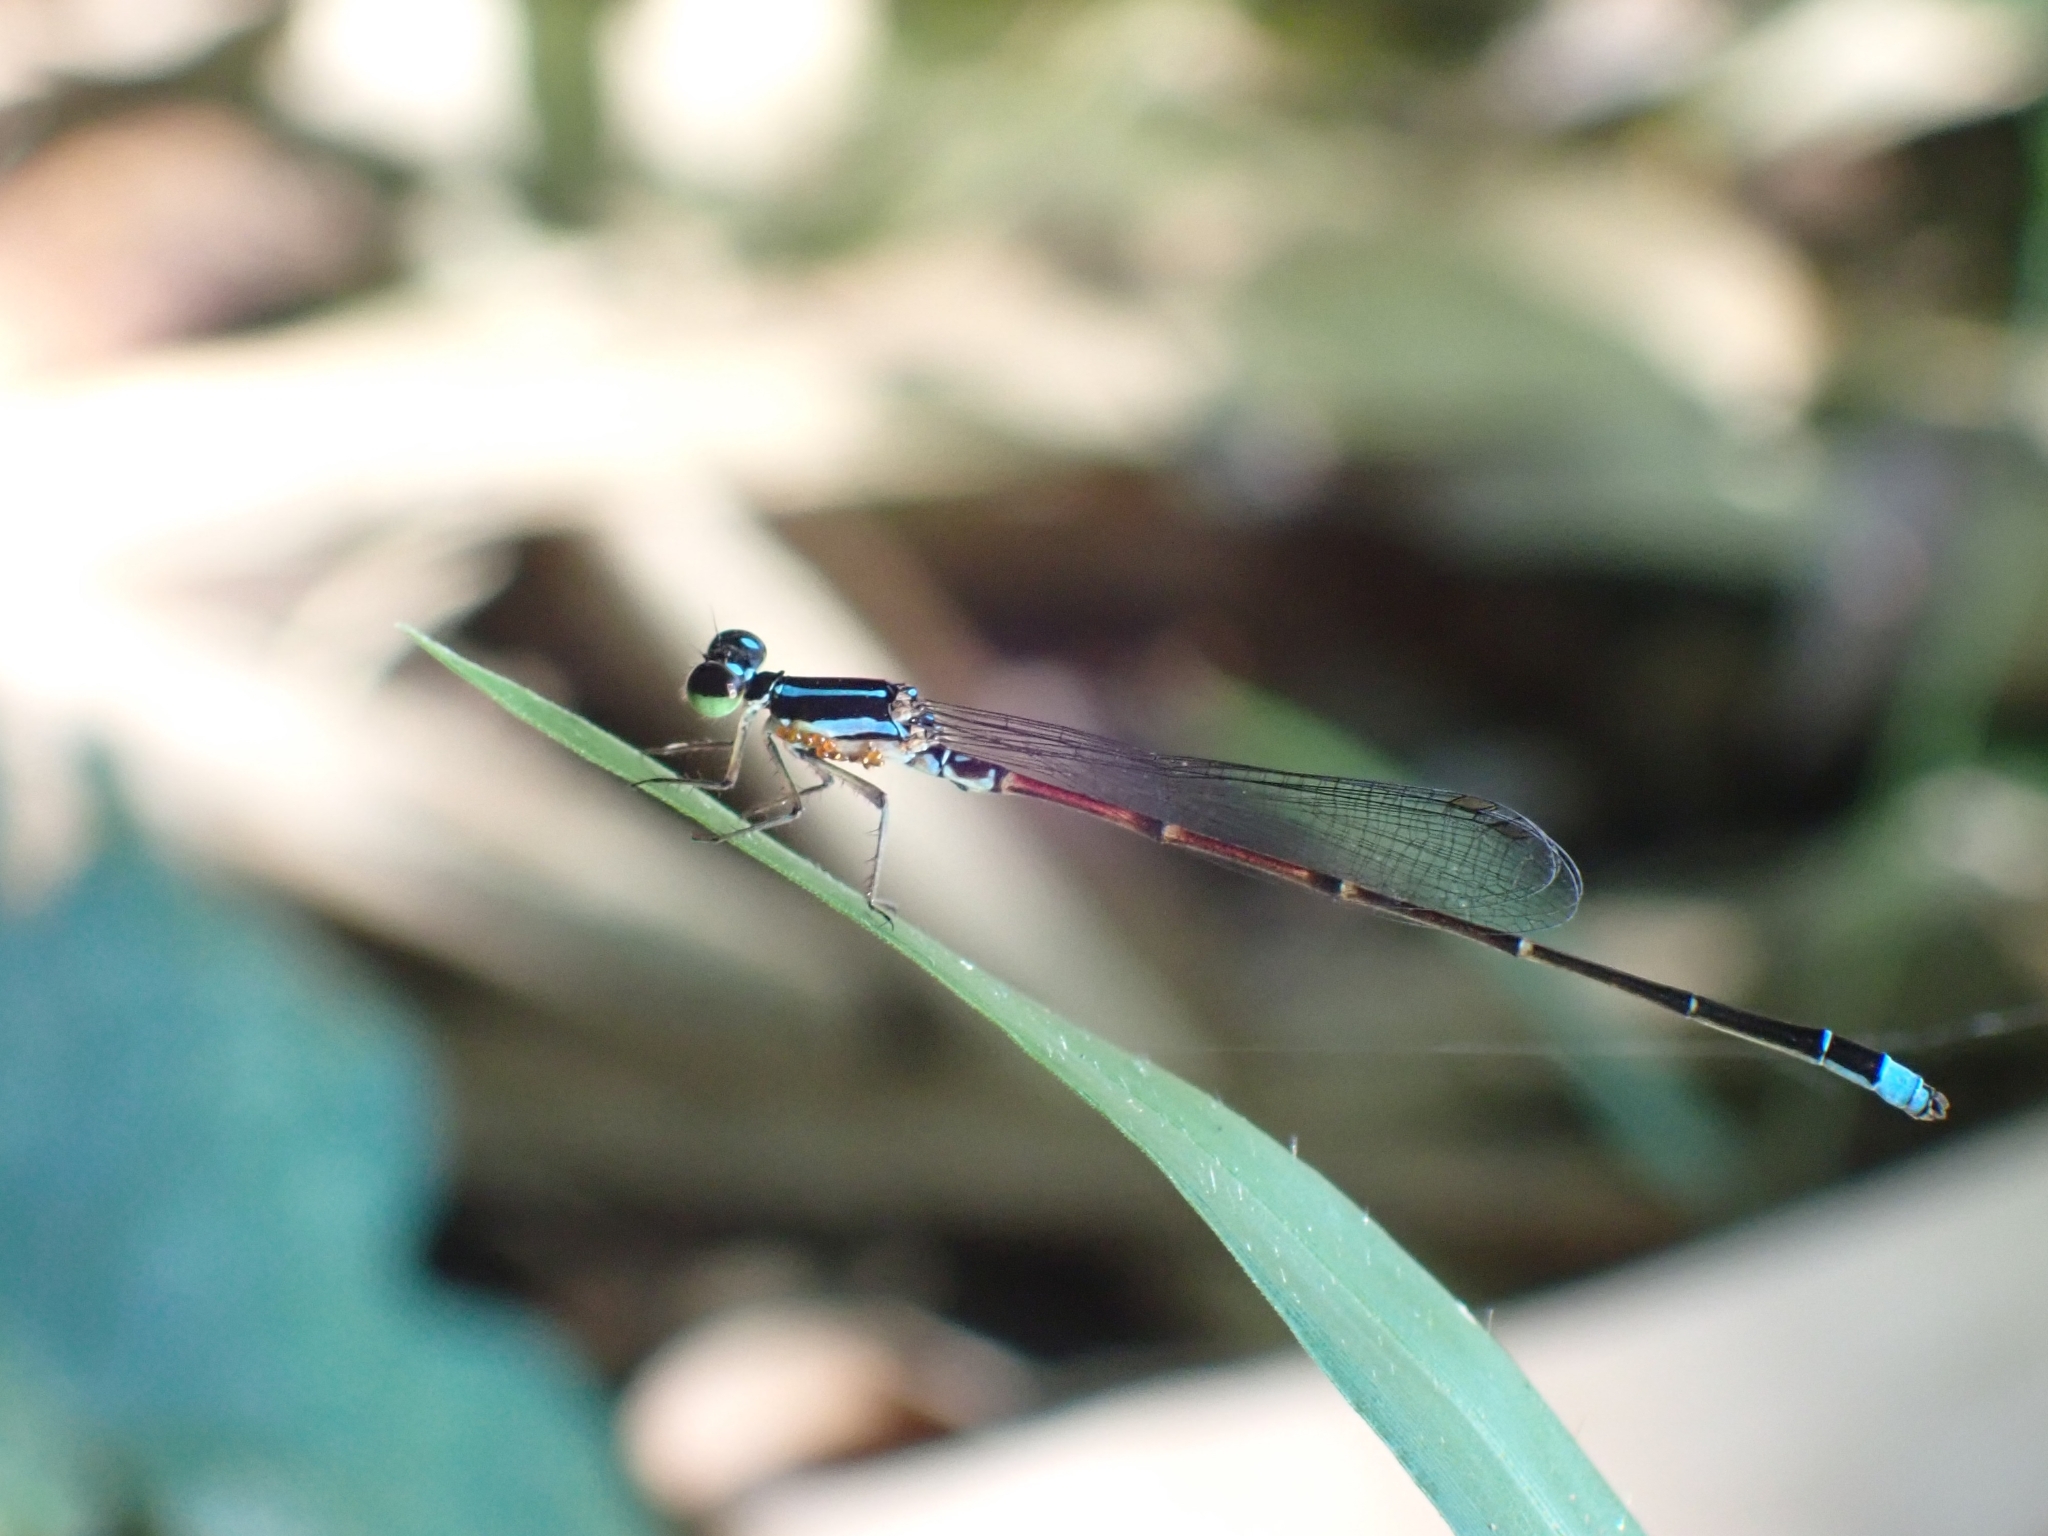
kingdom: Animalia
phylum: Arthropoda
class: Insecta
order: Odonata
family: Coenagrionidae
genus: Mortonagrion
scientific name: Mortonagrion aborense
